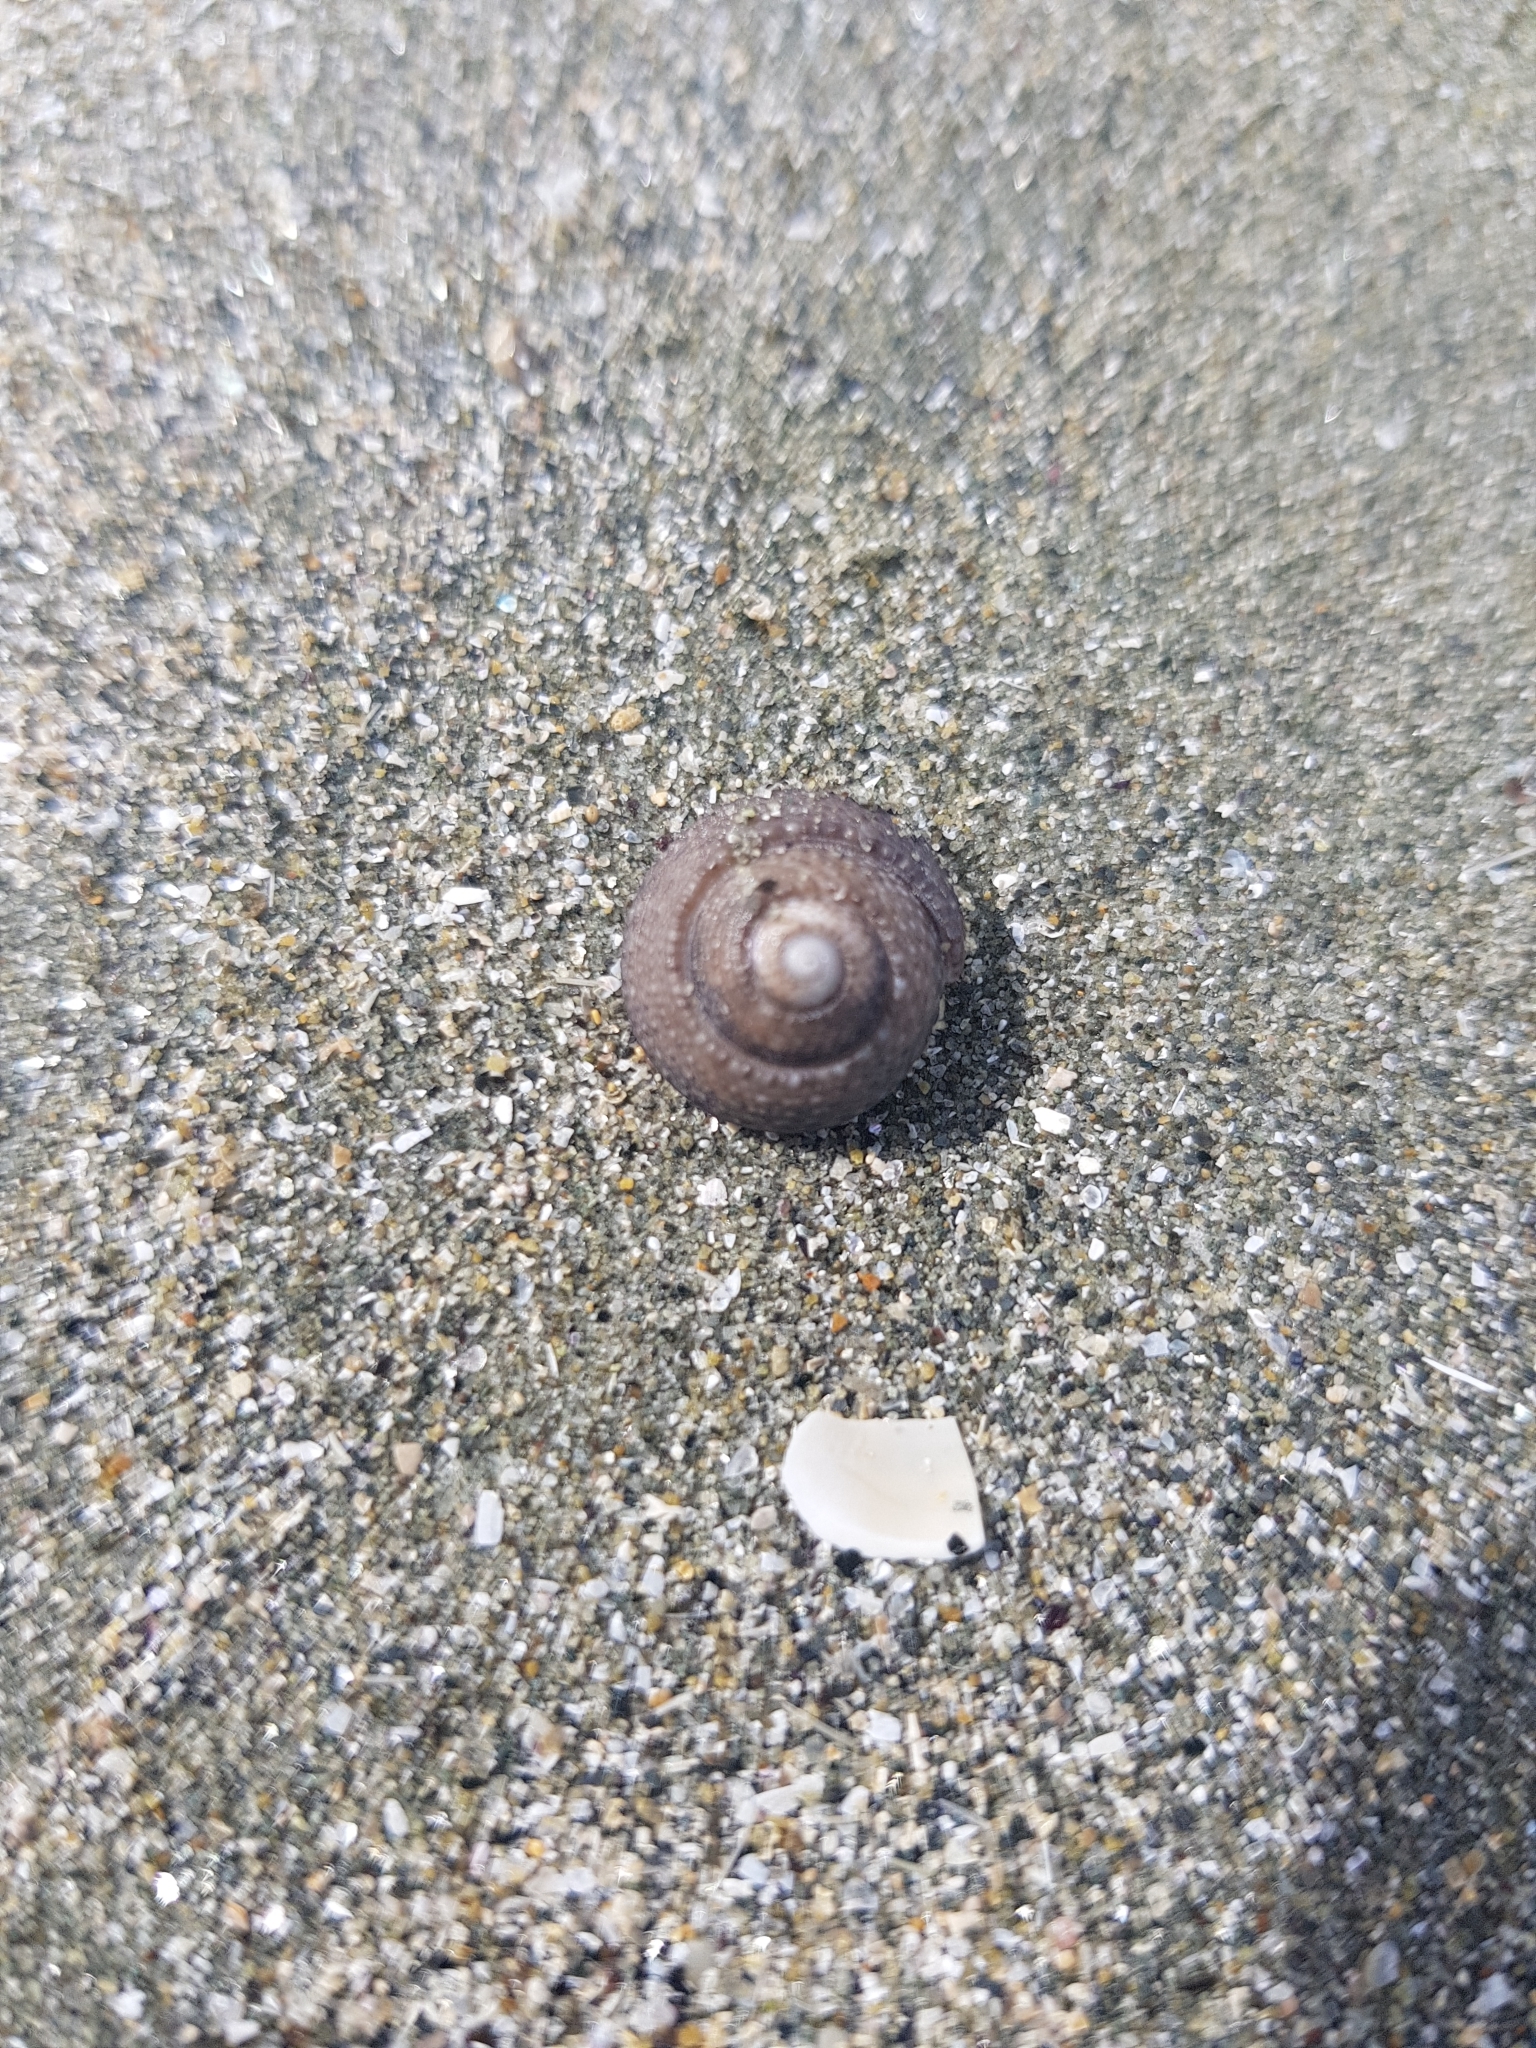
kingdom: Animalia
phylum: Mollusca
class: Gastropoda
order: Trochida
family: Trochidae
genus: Coelotrochus
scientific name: Coelotrochus tiaratus
